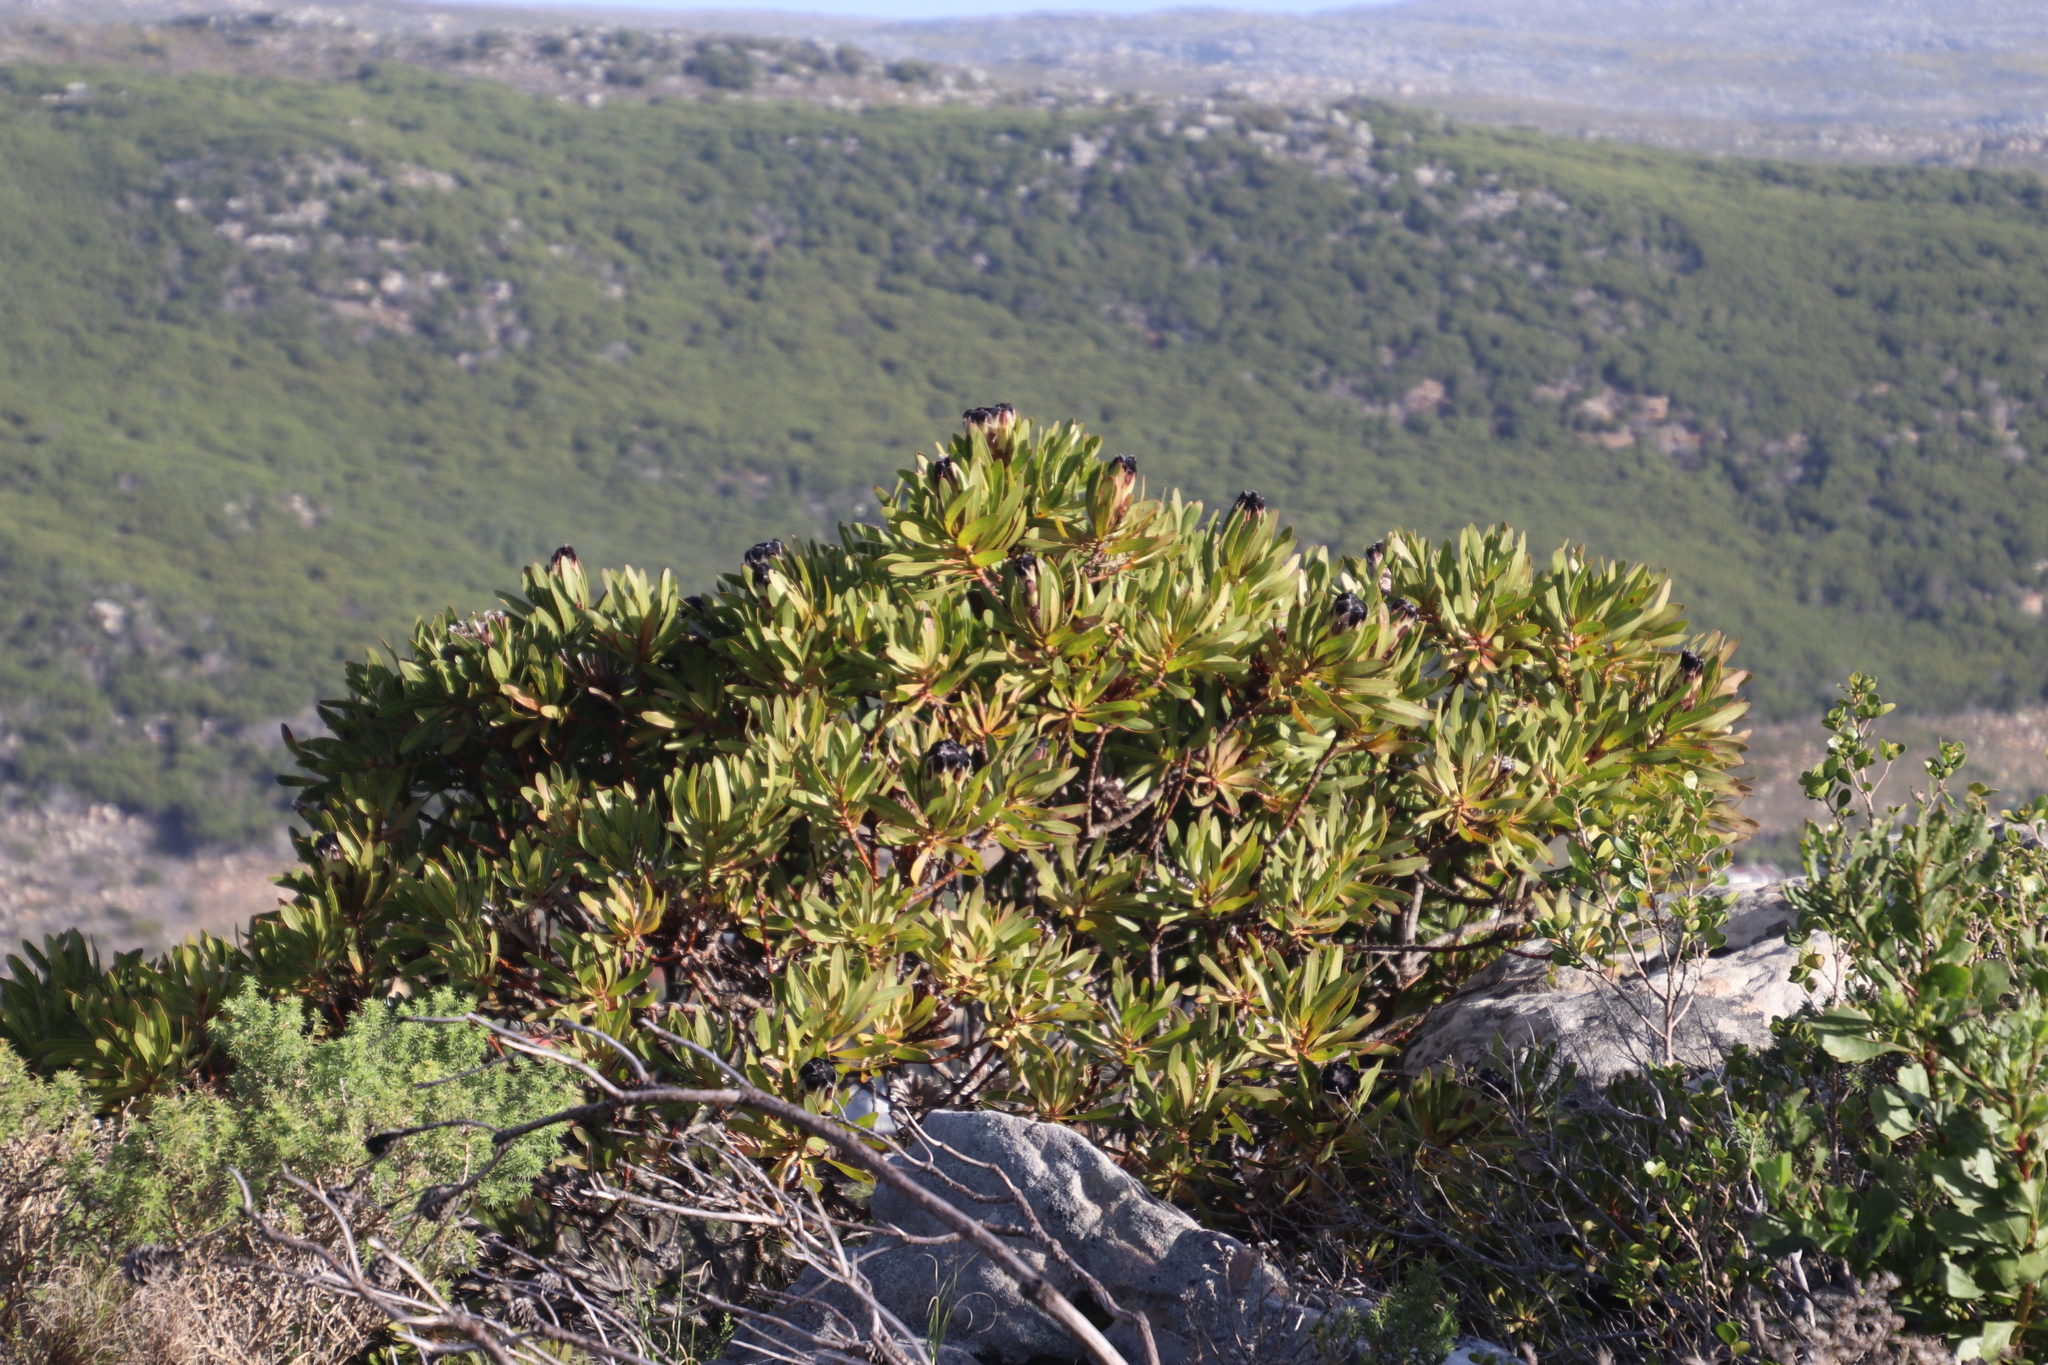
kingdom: Plantae
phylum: Tracheophyta
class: Magnoliopsida
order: Proteales
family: Proteaceae
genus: Protea
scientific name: Protea lepidocarpodendron
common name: Black-bearded protea
